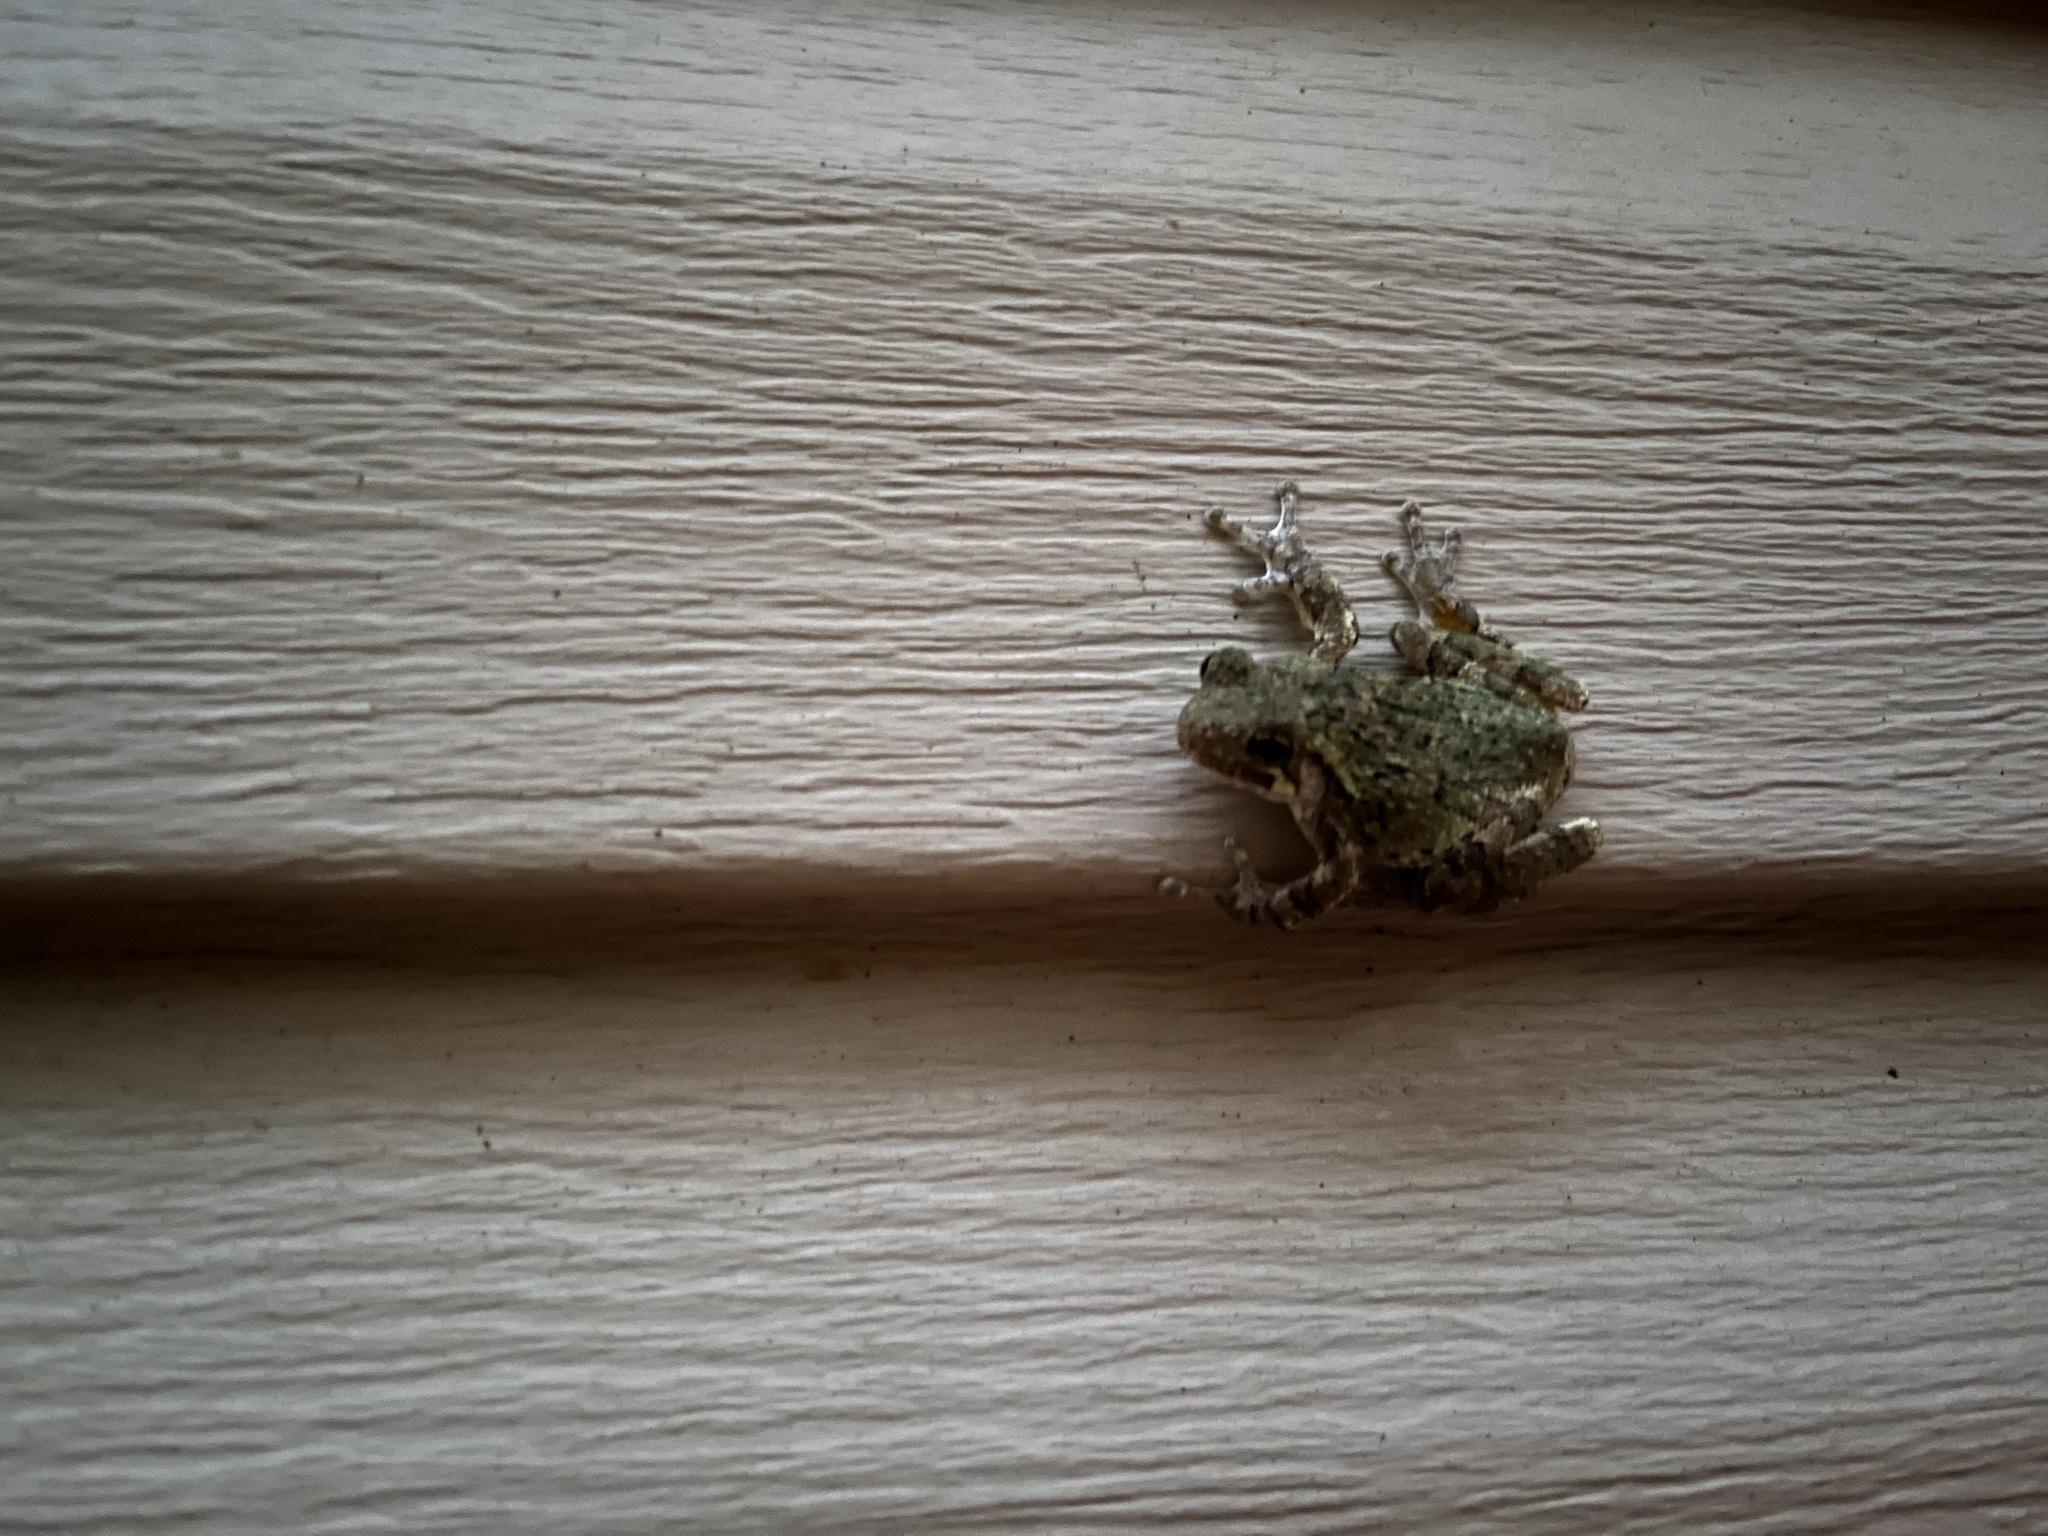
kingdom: Animalia
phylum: Chordata
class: Amphibia
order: Anura
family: Hylidae
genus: Dryophytes
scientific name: Dryophytes chrysoscelis
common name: Cope's gray treefrog
